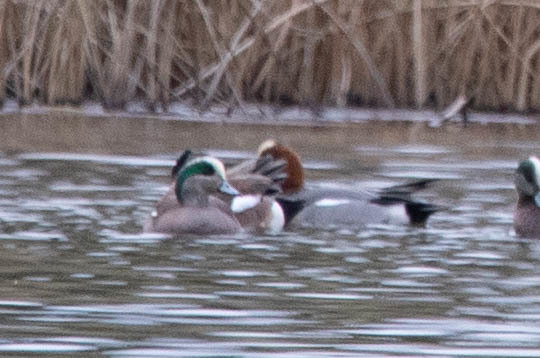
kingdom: Animalia
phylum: Chordata
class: Aves
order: Anseriformes
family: Anatidae
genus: Mareca
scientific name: Mareca penelope
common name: Eurasian wigeon
